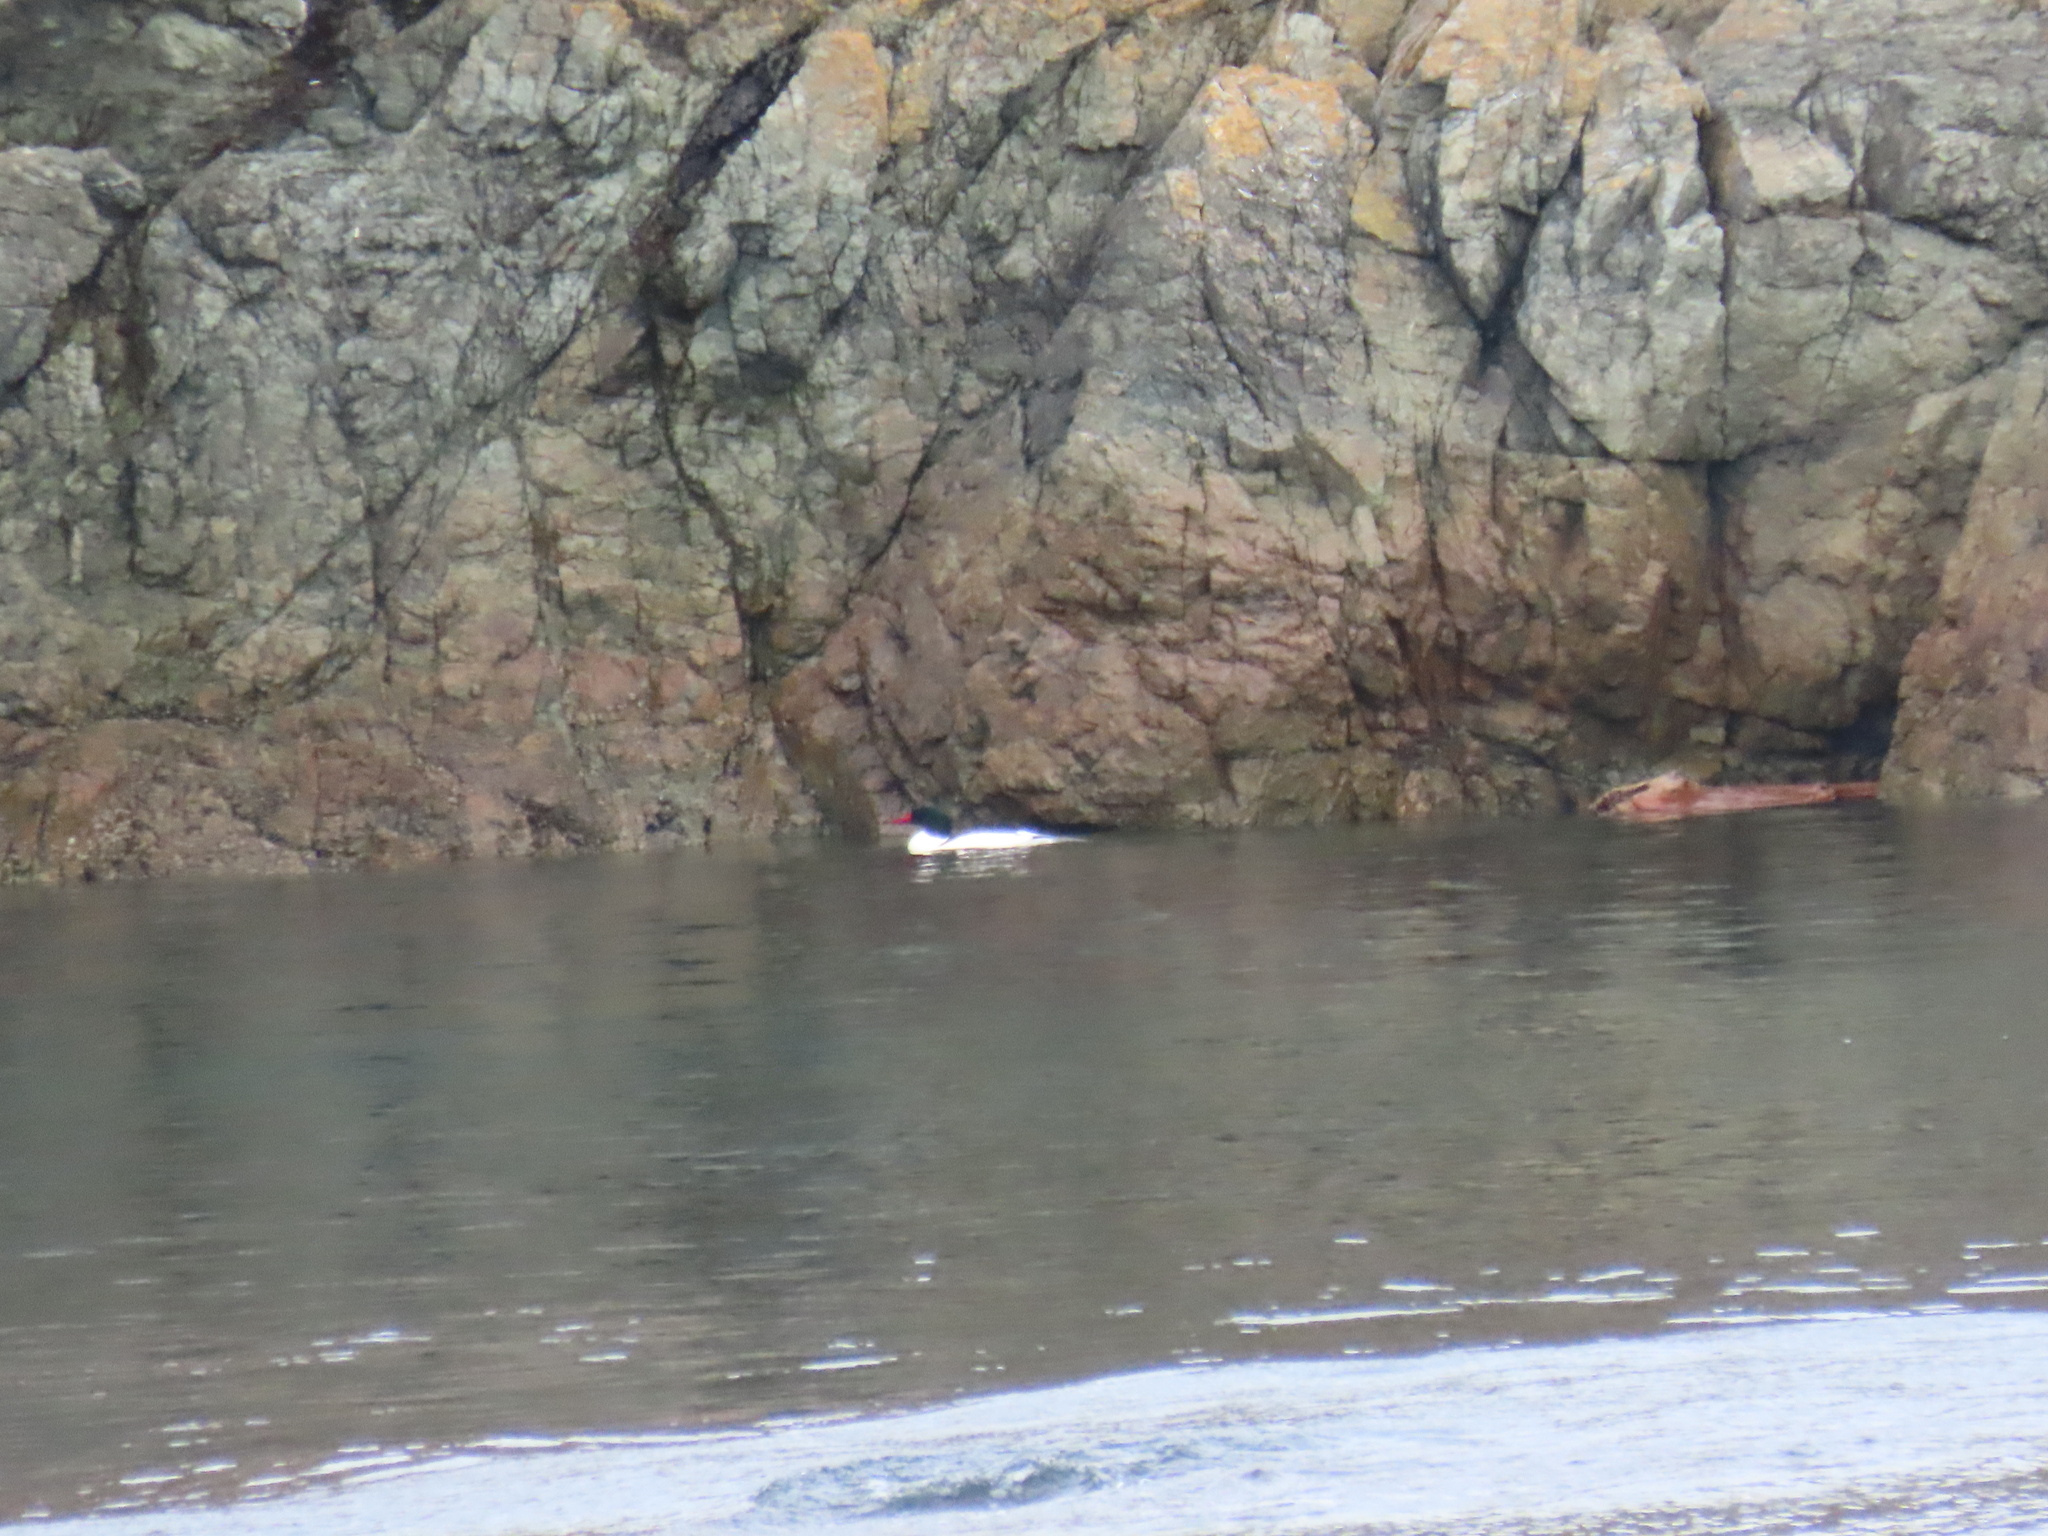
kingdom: Animalia
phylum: Chordata
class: Aves
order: Anseriformes
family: Anatidae
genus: Mergus
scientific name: Mergus merganser
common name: Common merganser
